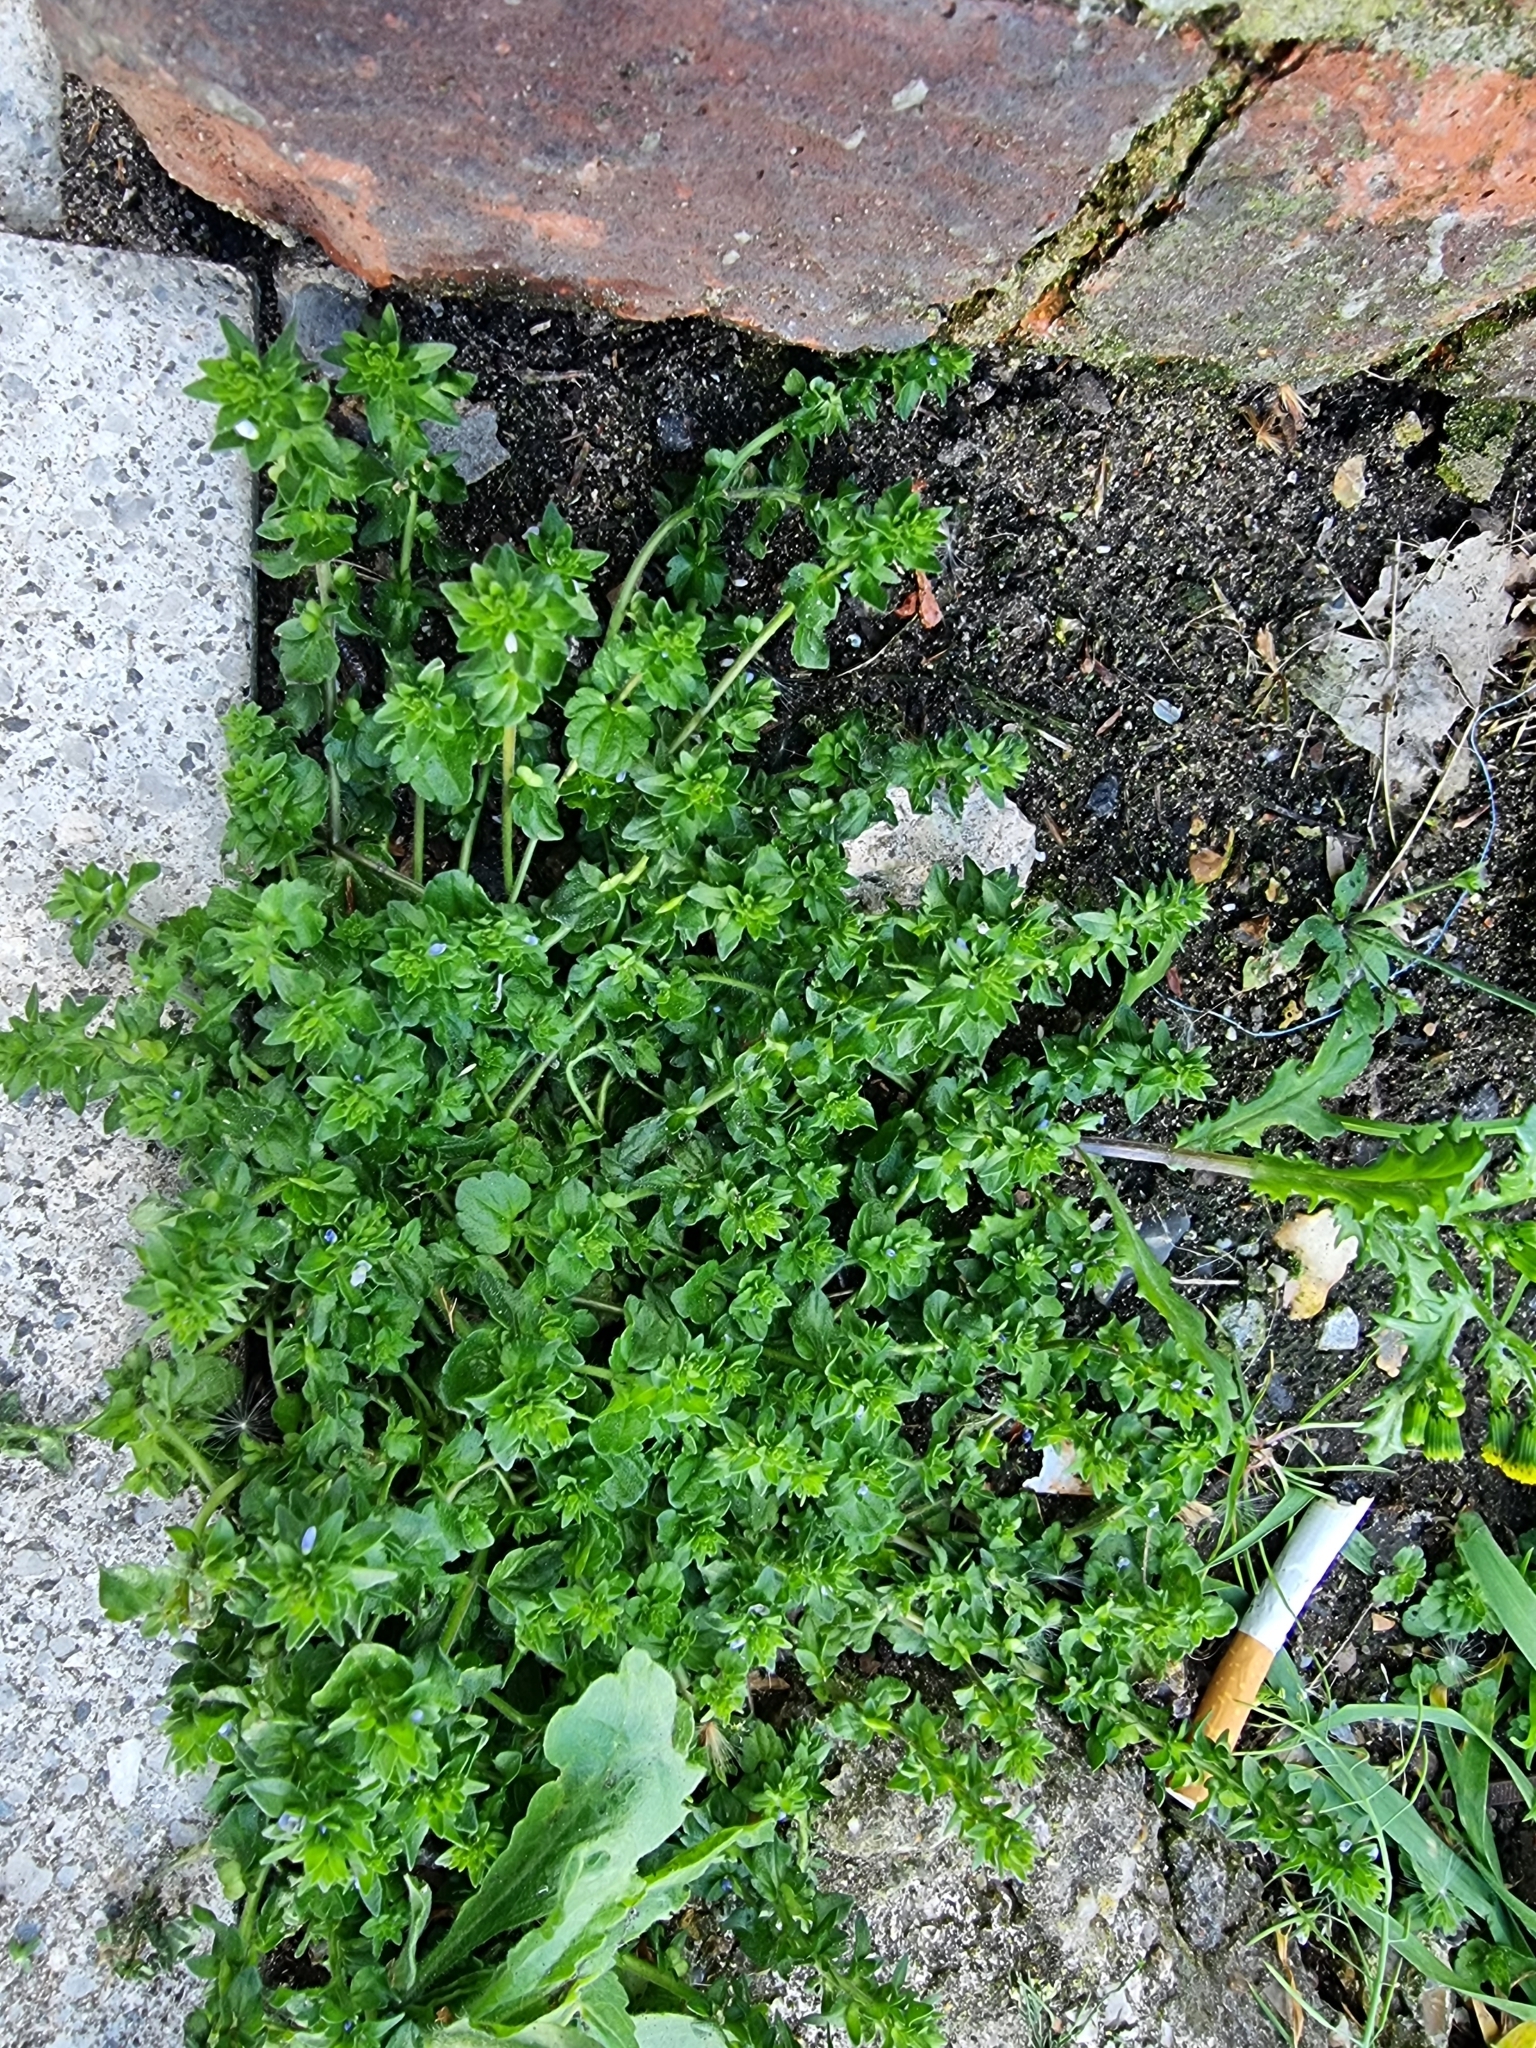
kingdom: Plantae
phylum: Tracheophyta
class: Magnoliopsida
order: Lamiales
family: Plantaginaceae
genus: Veronica
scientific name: Veronica arvensis
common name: Corn speedwell
